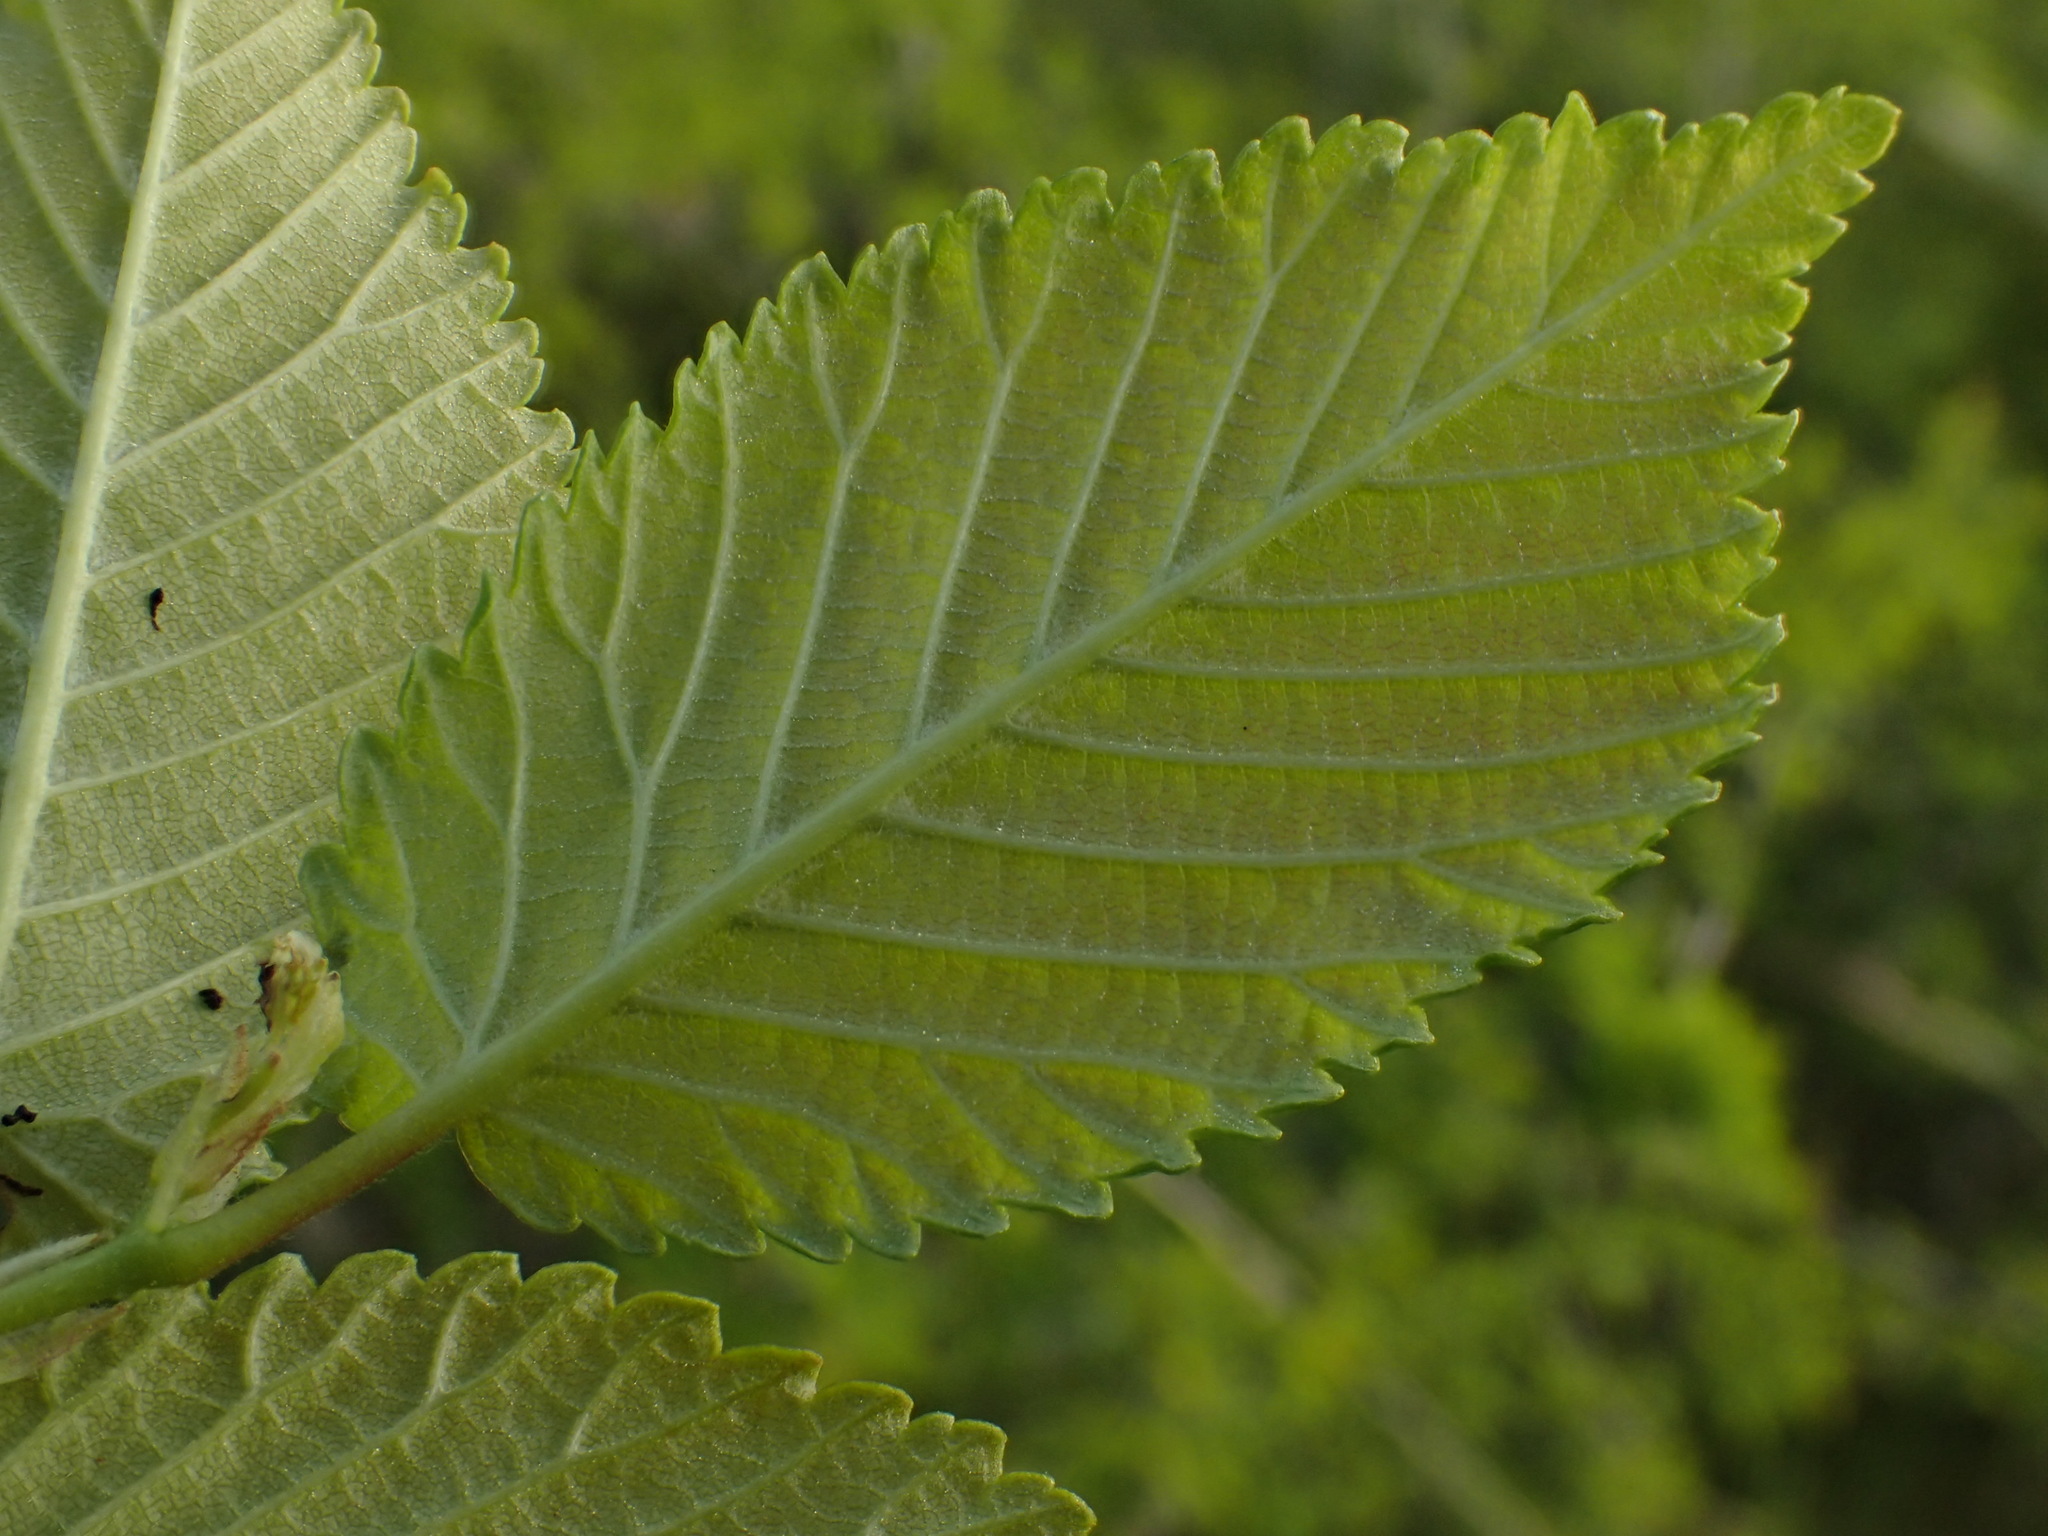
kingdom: Plantae
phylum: Tracheophyta
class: Magnoliopsida
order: Rosales
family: Ulmaceae
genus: Ulmus
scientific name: Ulmus minor
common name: Small-leaved elm
